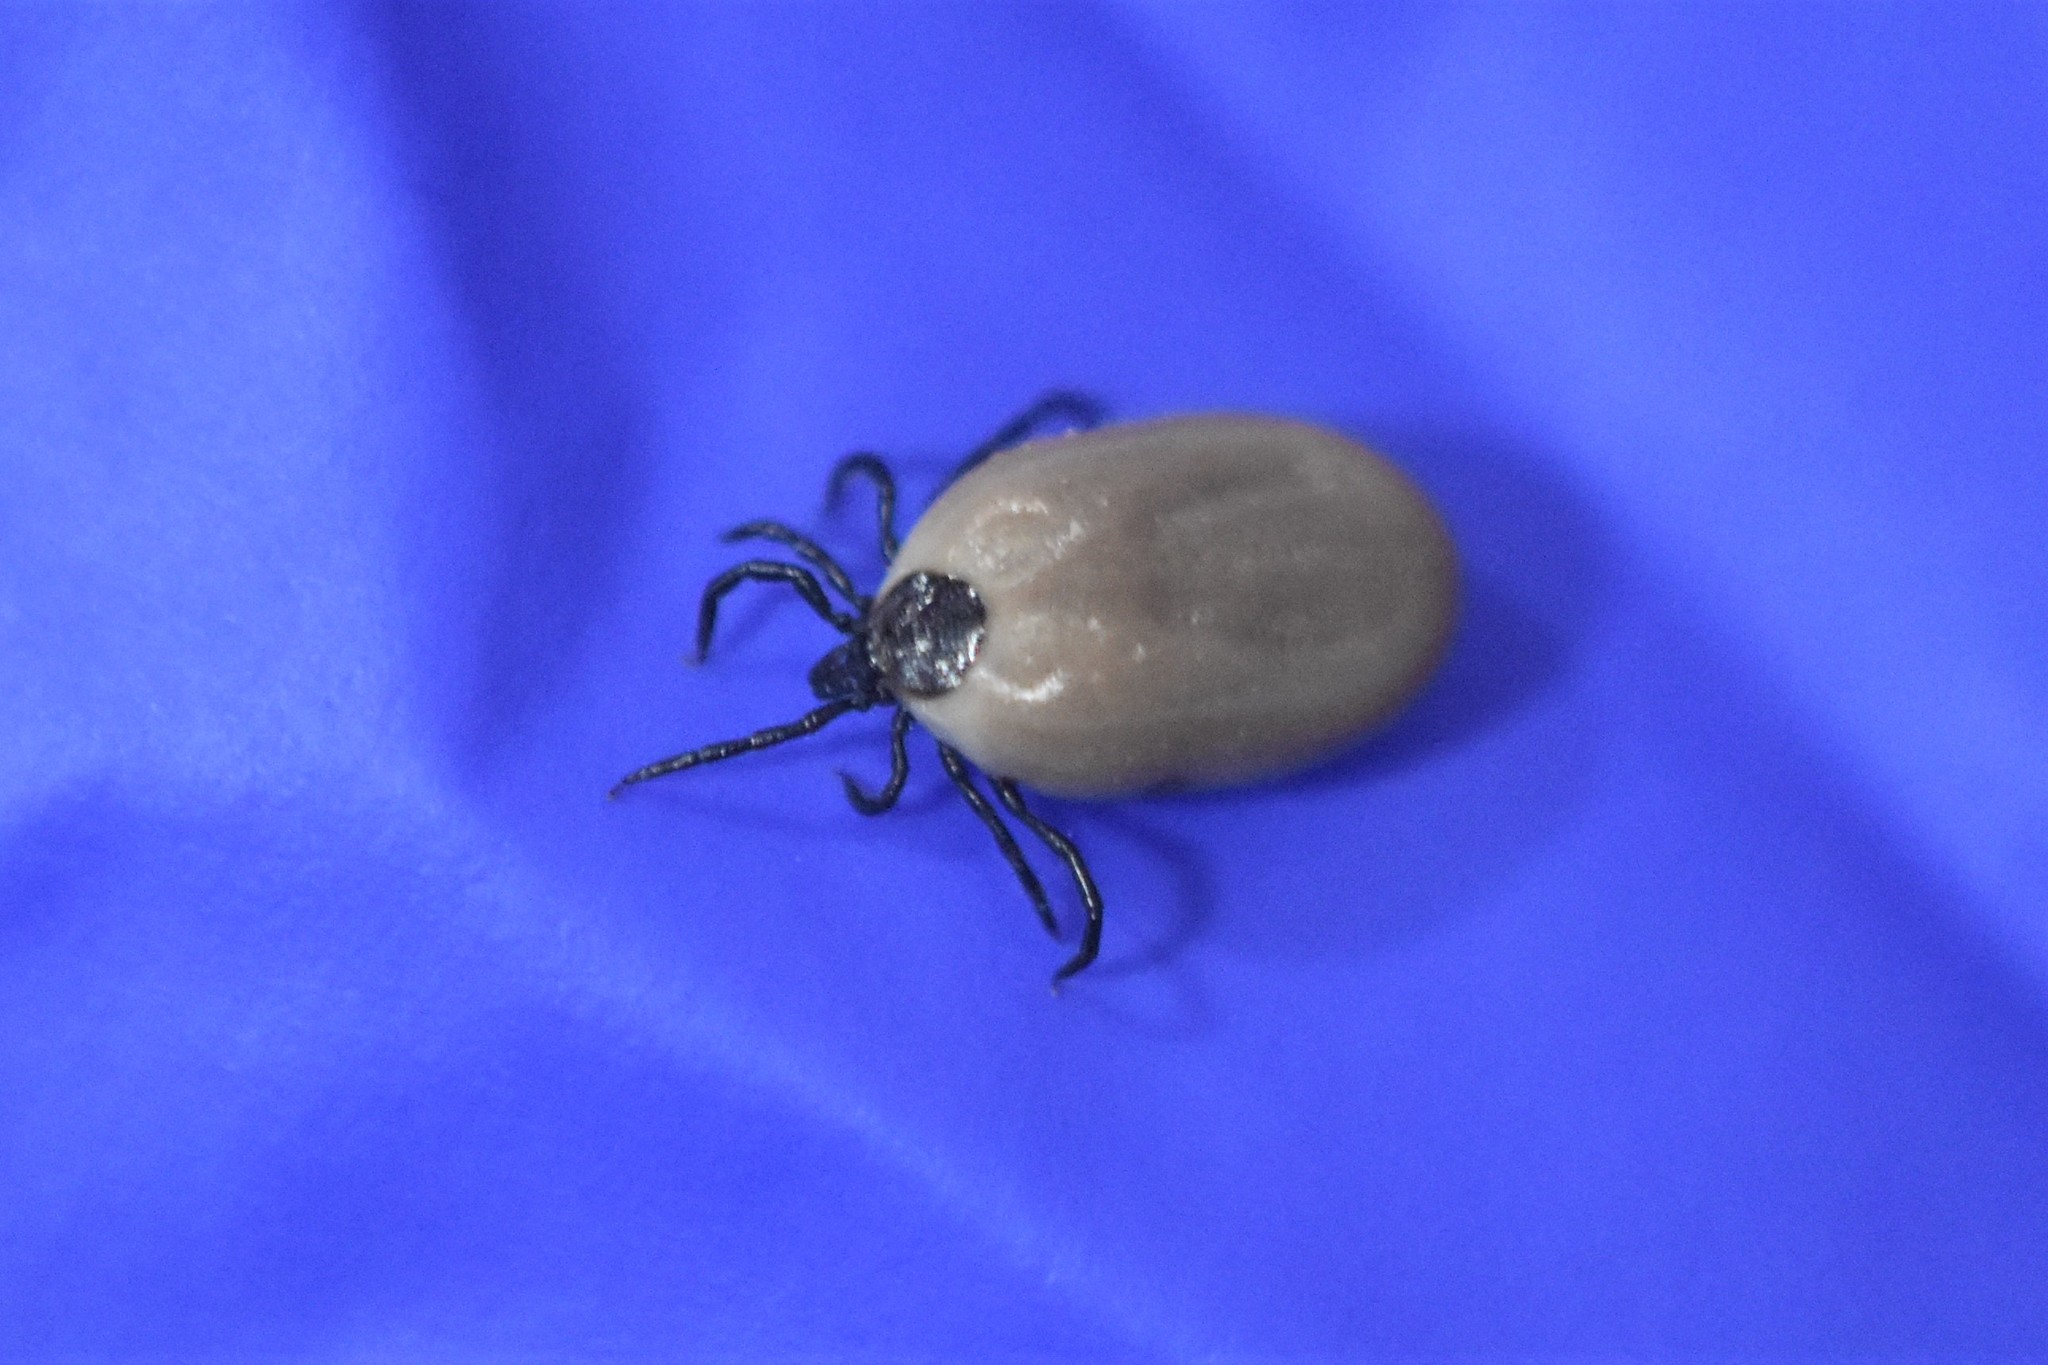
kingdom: Animalia
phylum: Arthropoda
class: Arachnida
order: Ixodida
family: Ixodidae
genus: Ixodes
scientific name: Ixodes pacificus
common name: California black-legged tick
